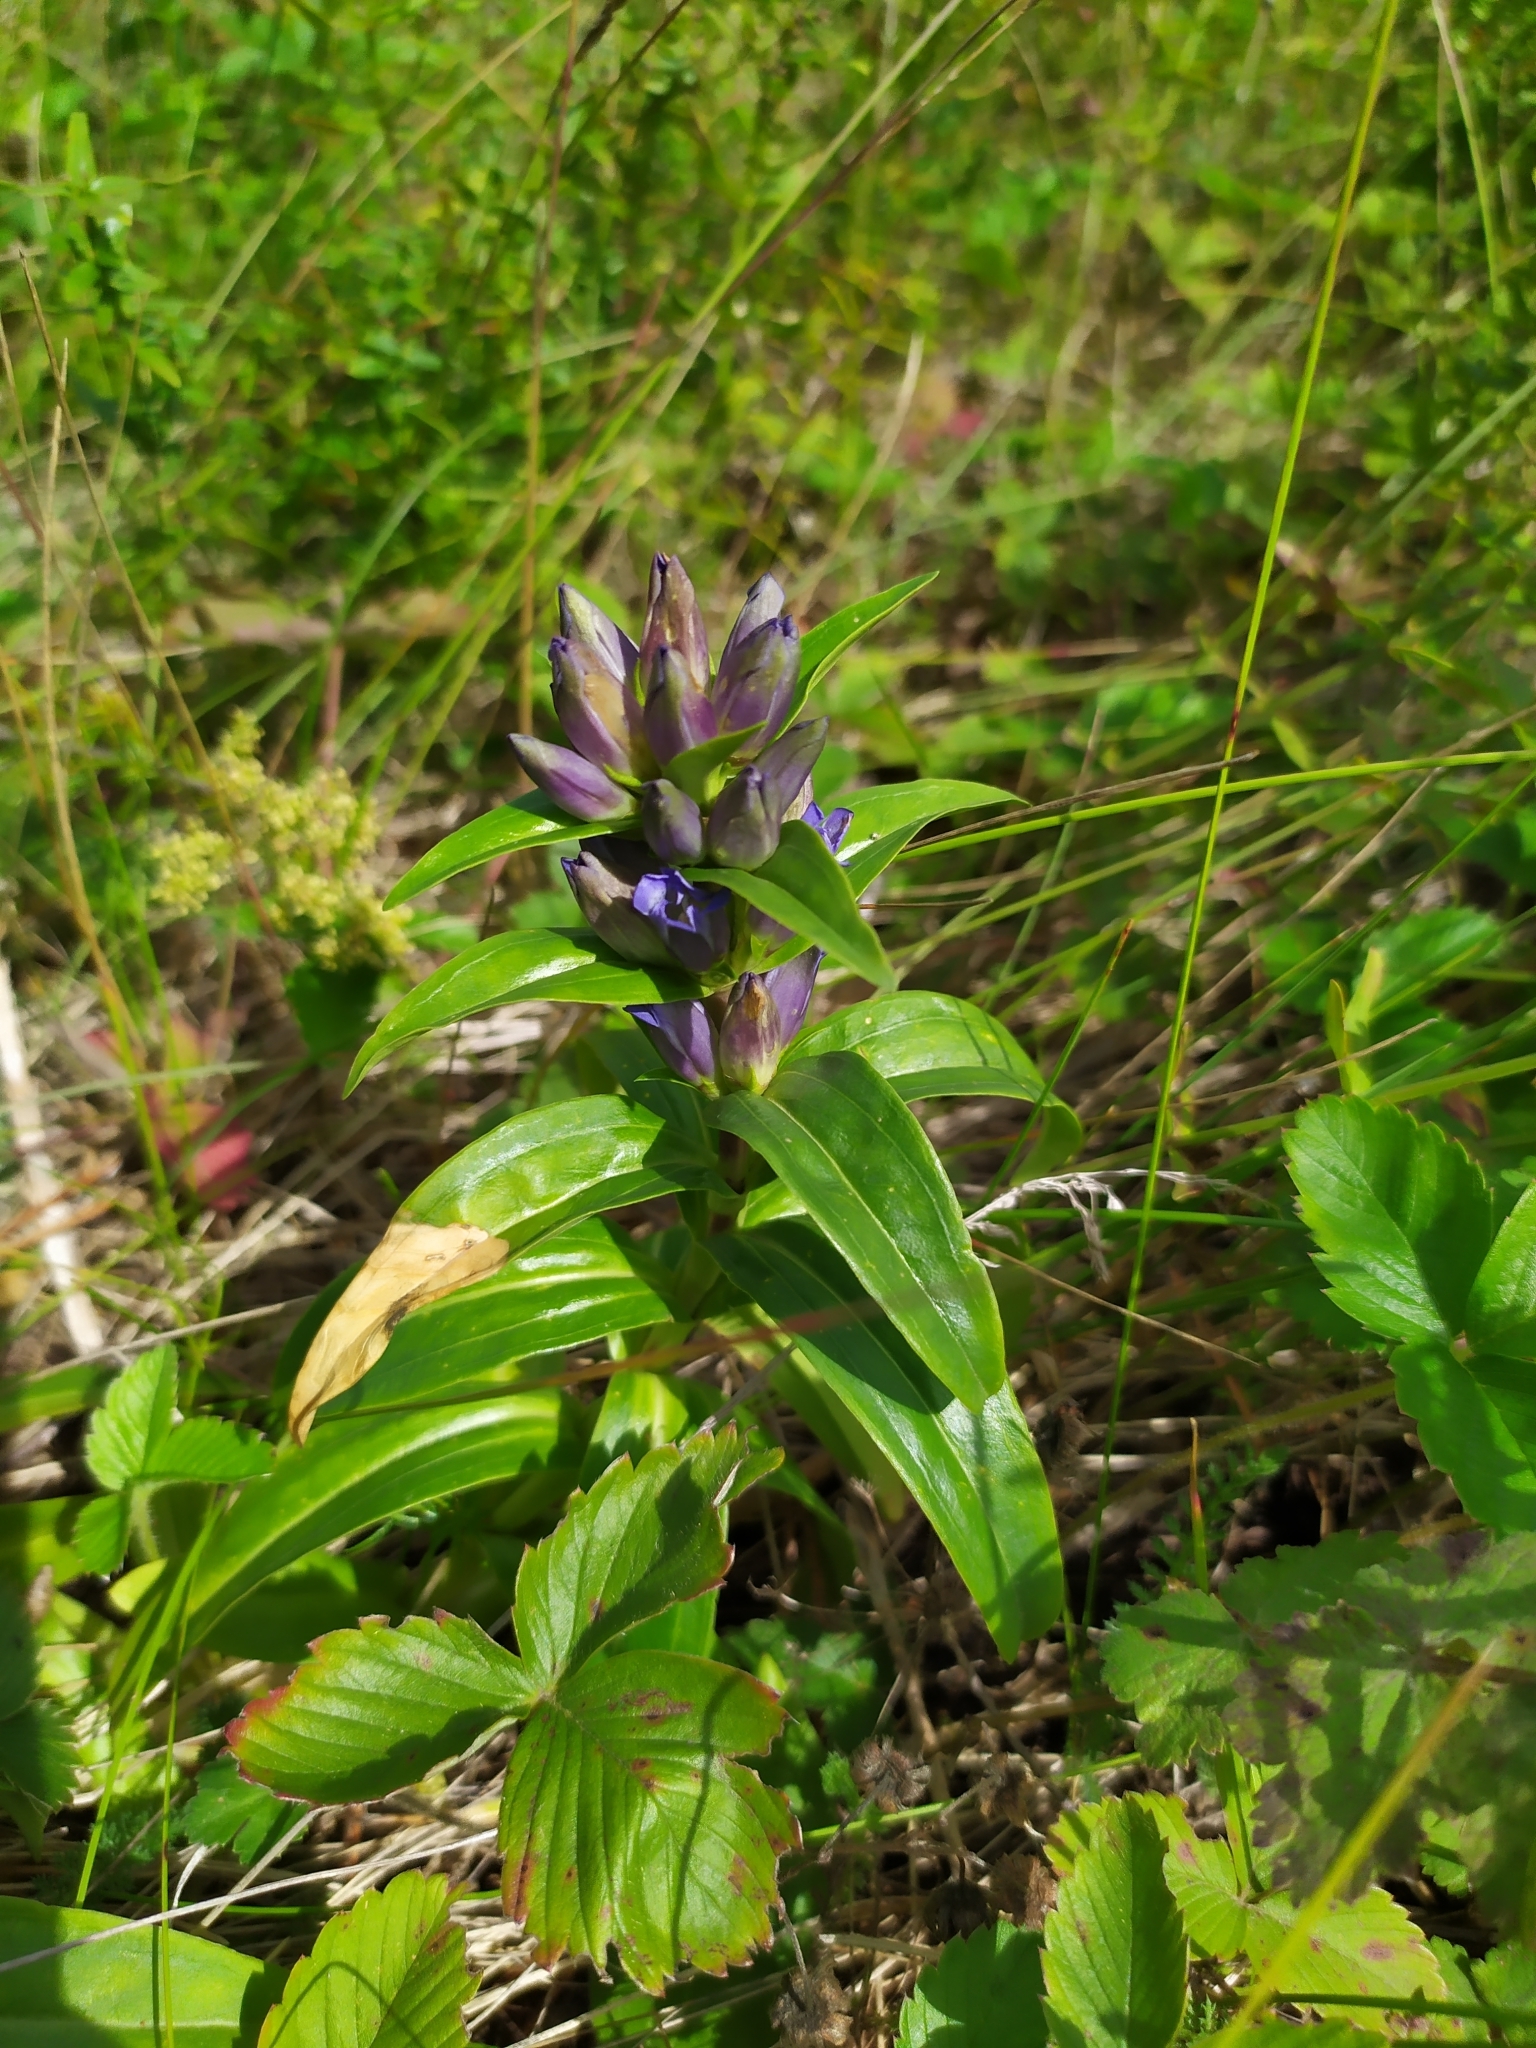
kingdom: Plantae
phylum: Tracheophyta
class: Magnoliopsida
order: Gentianales
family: Gentianaceae
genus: Gentiana
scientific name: Gentiana cruciata
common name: Cross gentian
